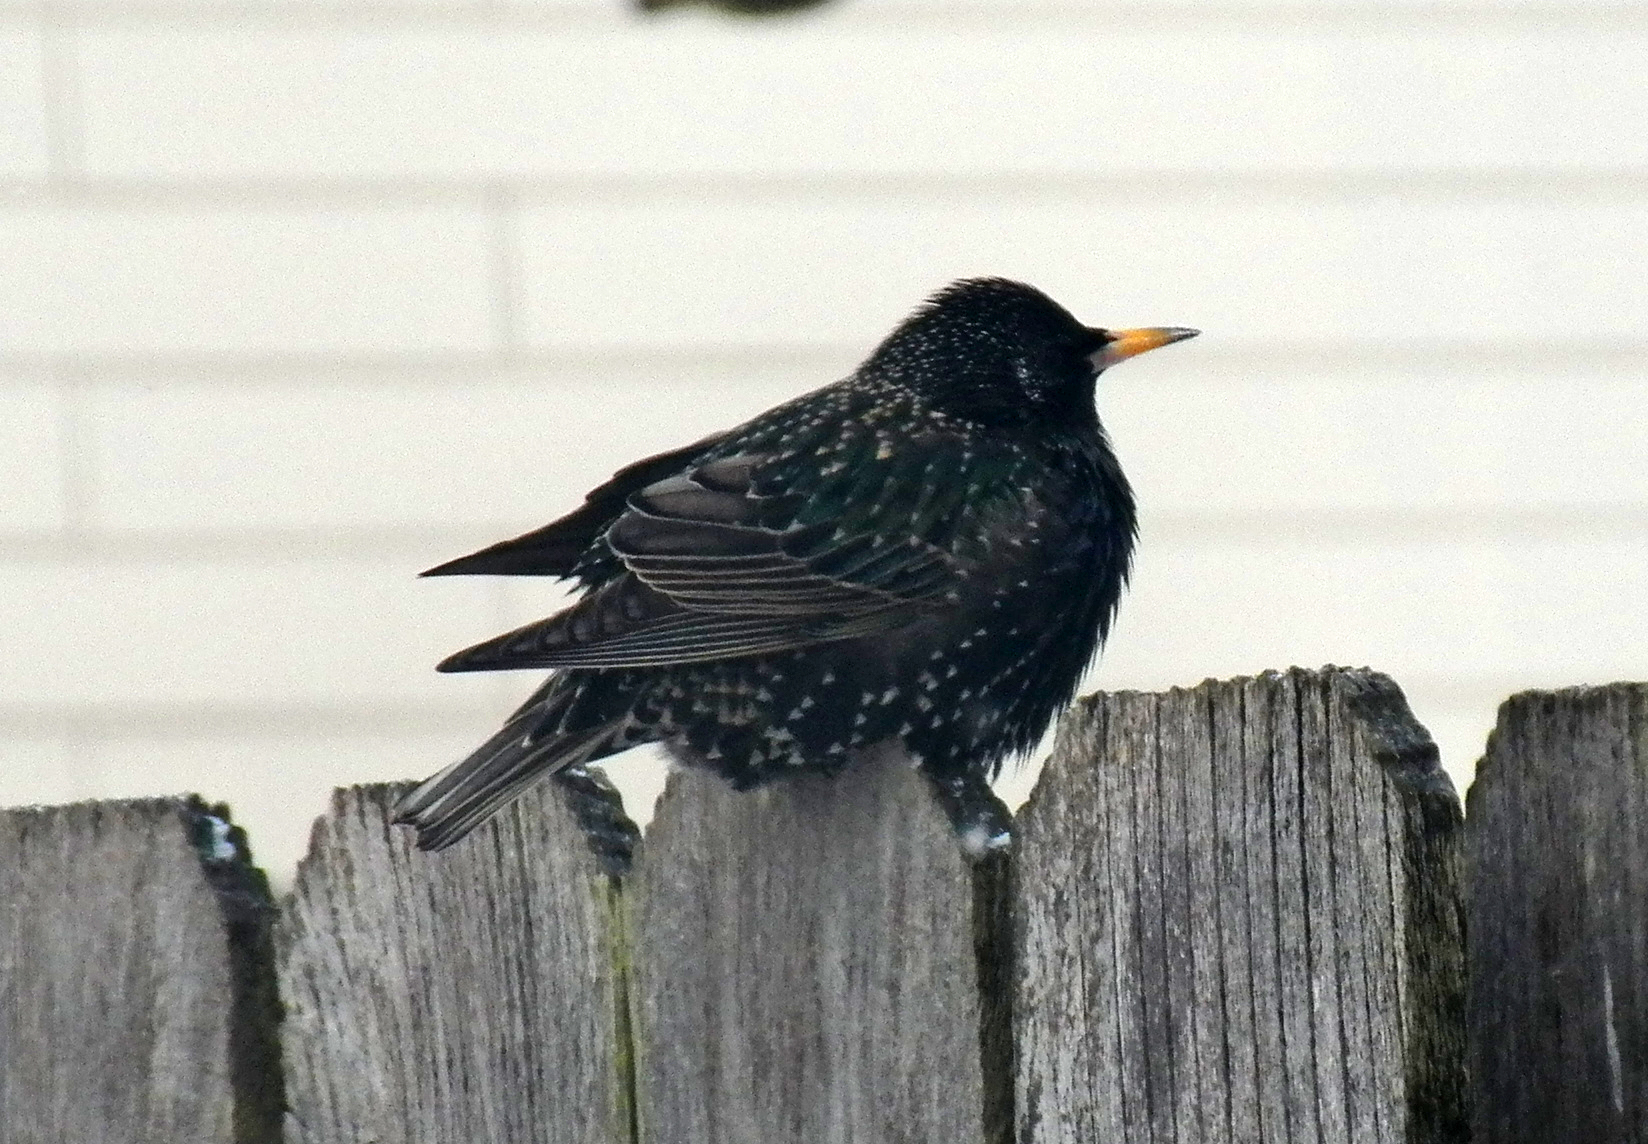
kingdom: Animalia
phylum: Chordata
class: Aves
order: Passeriformes
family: Sturnidae
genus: Sturnus
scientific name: Sturnus vulgaris
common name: Common starling
